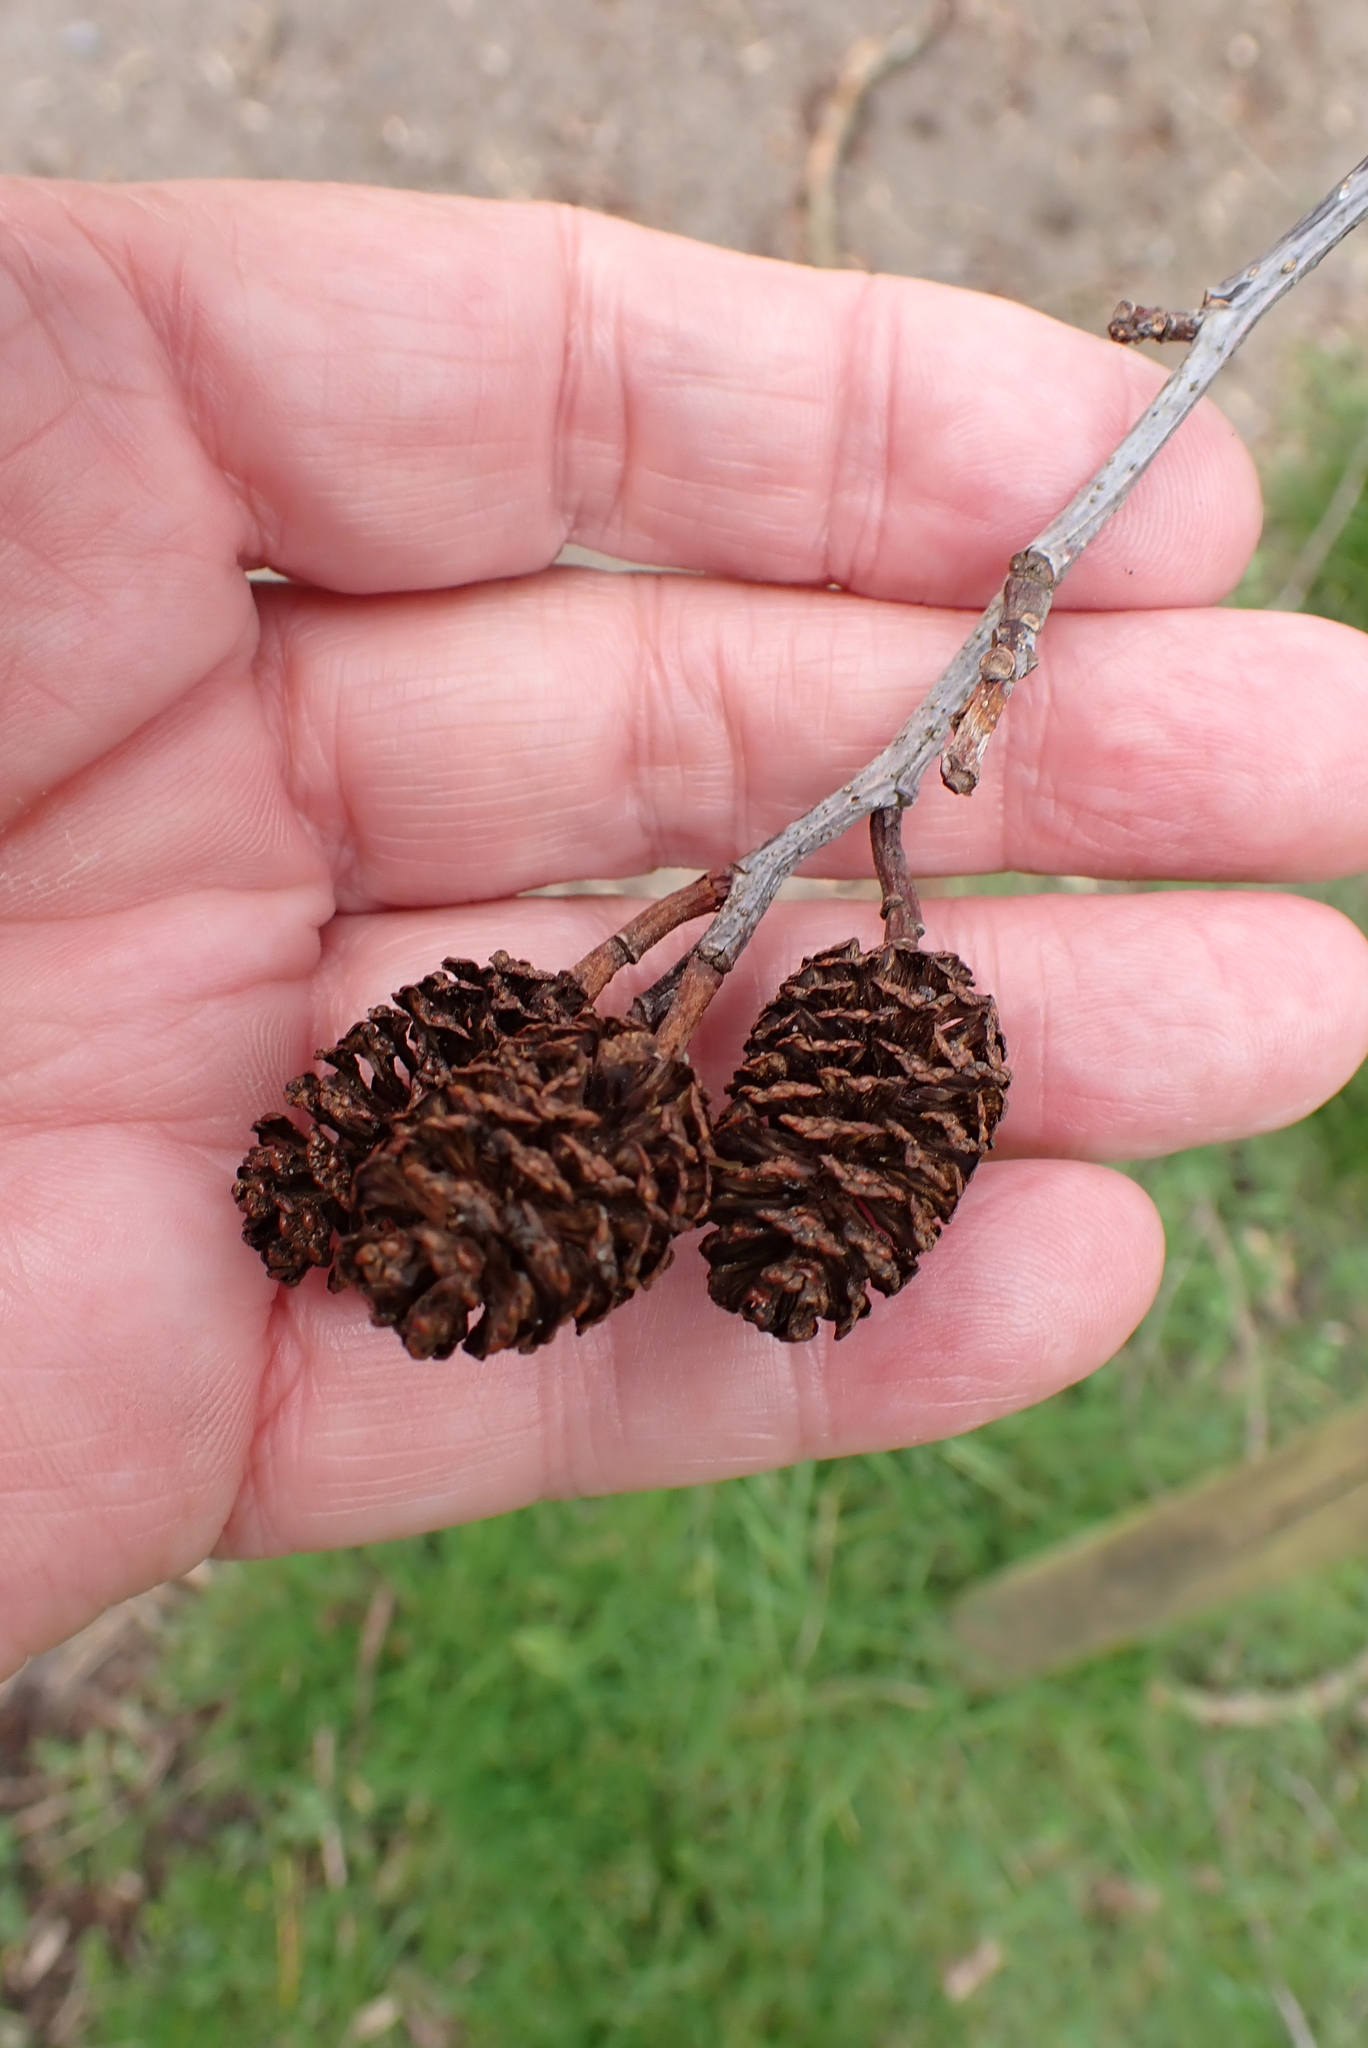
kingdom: Plantae
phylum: Tracheophyta
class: Magnoliopsida
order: Fagales
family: Betulaceae
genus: Alnus
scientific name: Alnus glutinosa
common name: Black alder
